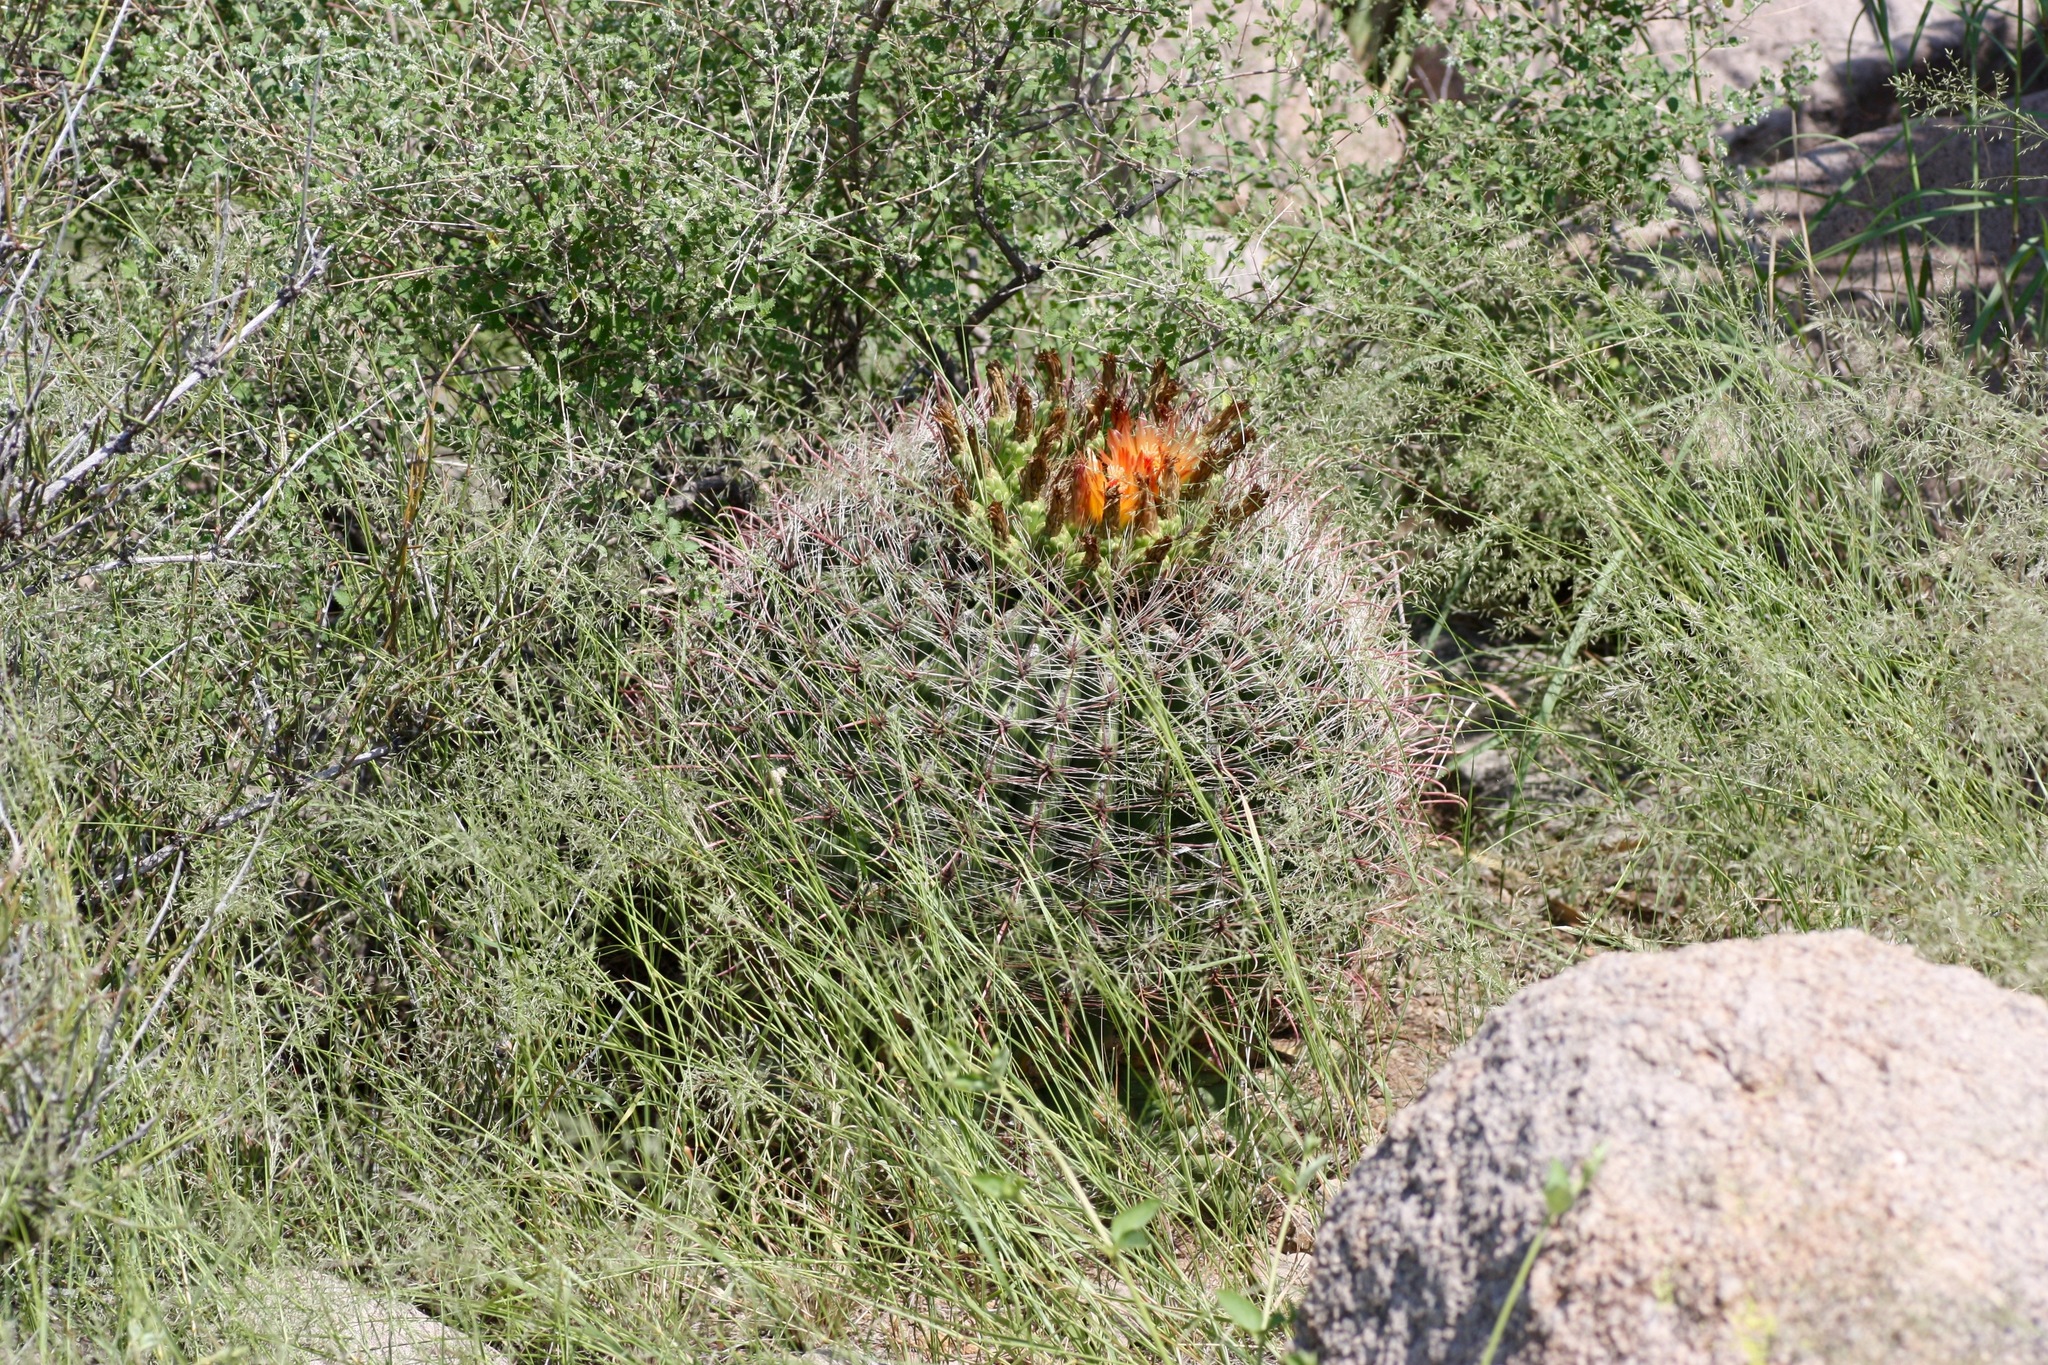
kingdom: Plantae
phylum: Tracheophyta
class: Magnoliopsida
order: Caryophyllales
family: Cactaceae
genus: Ferocactus
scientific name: Ferocactus wislizeni
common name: Candy barrel cactus
